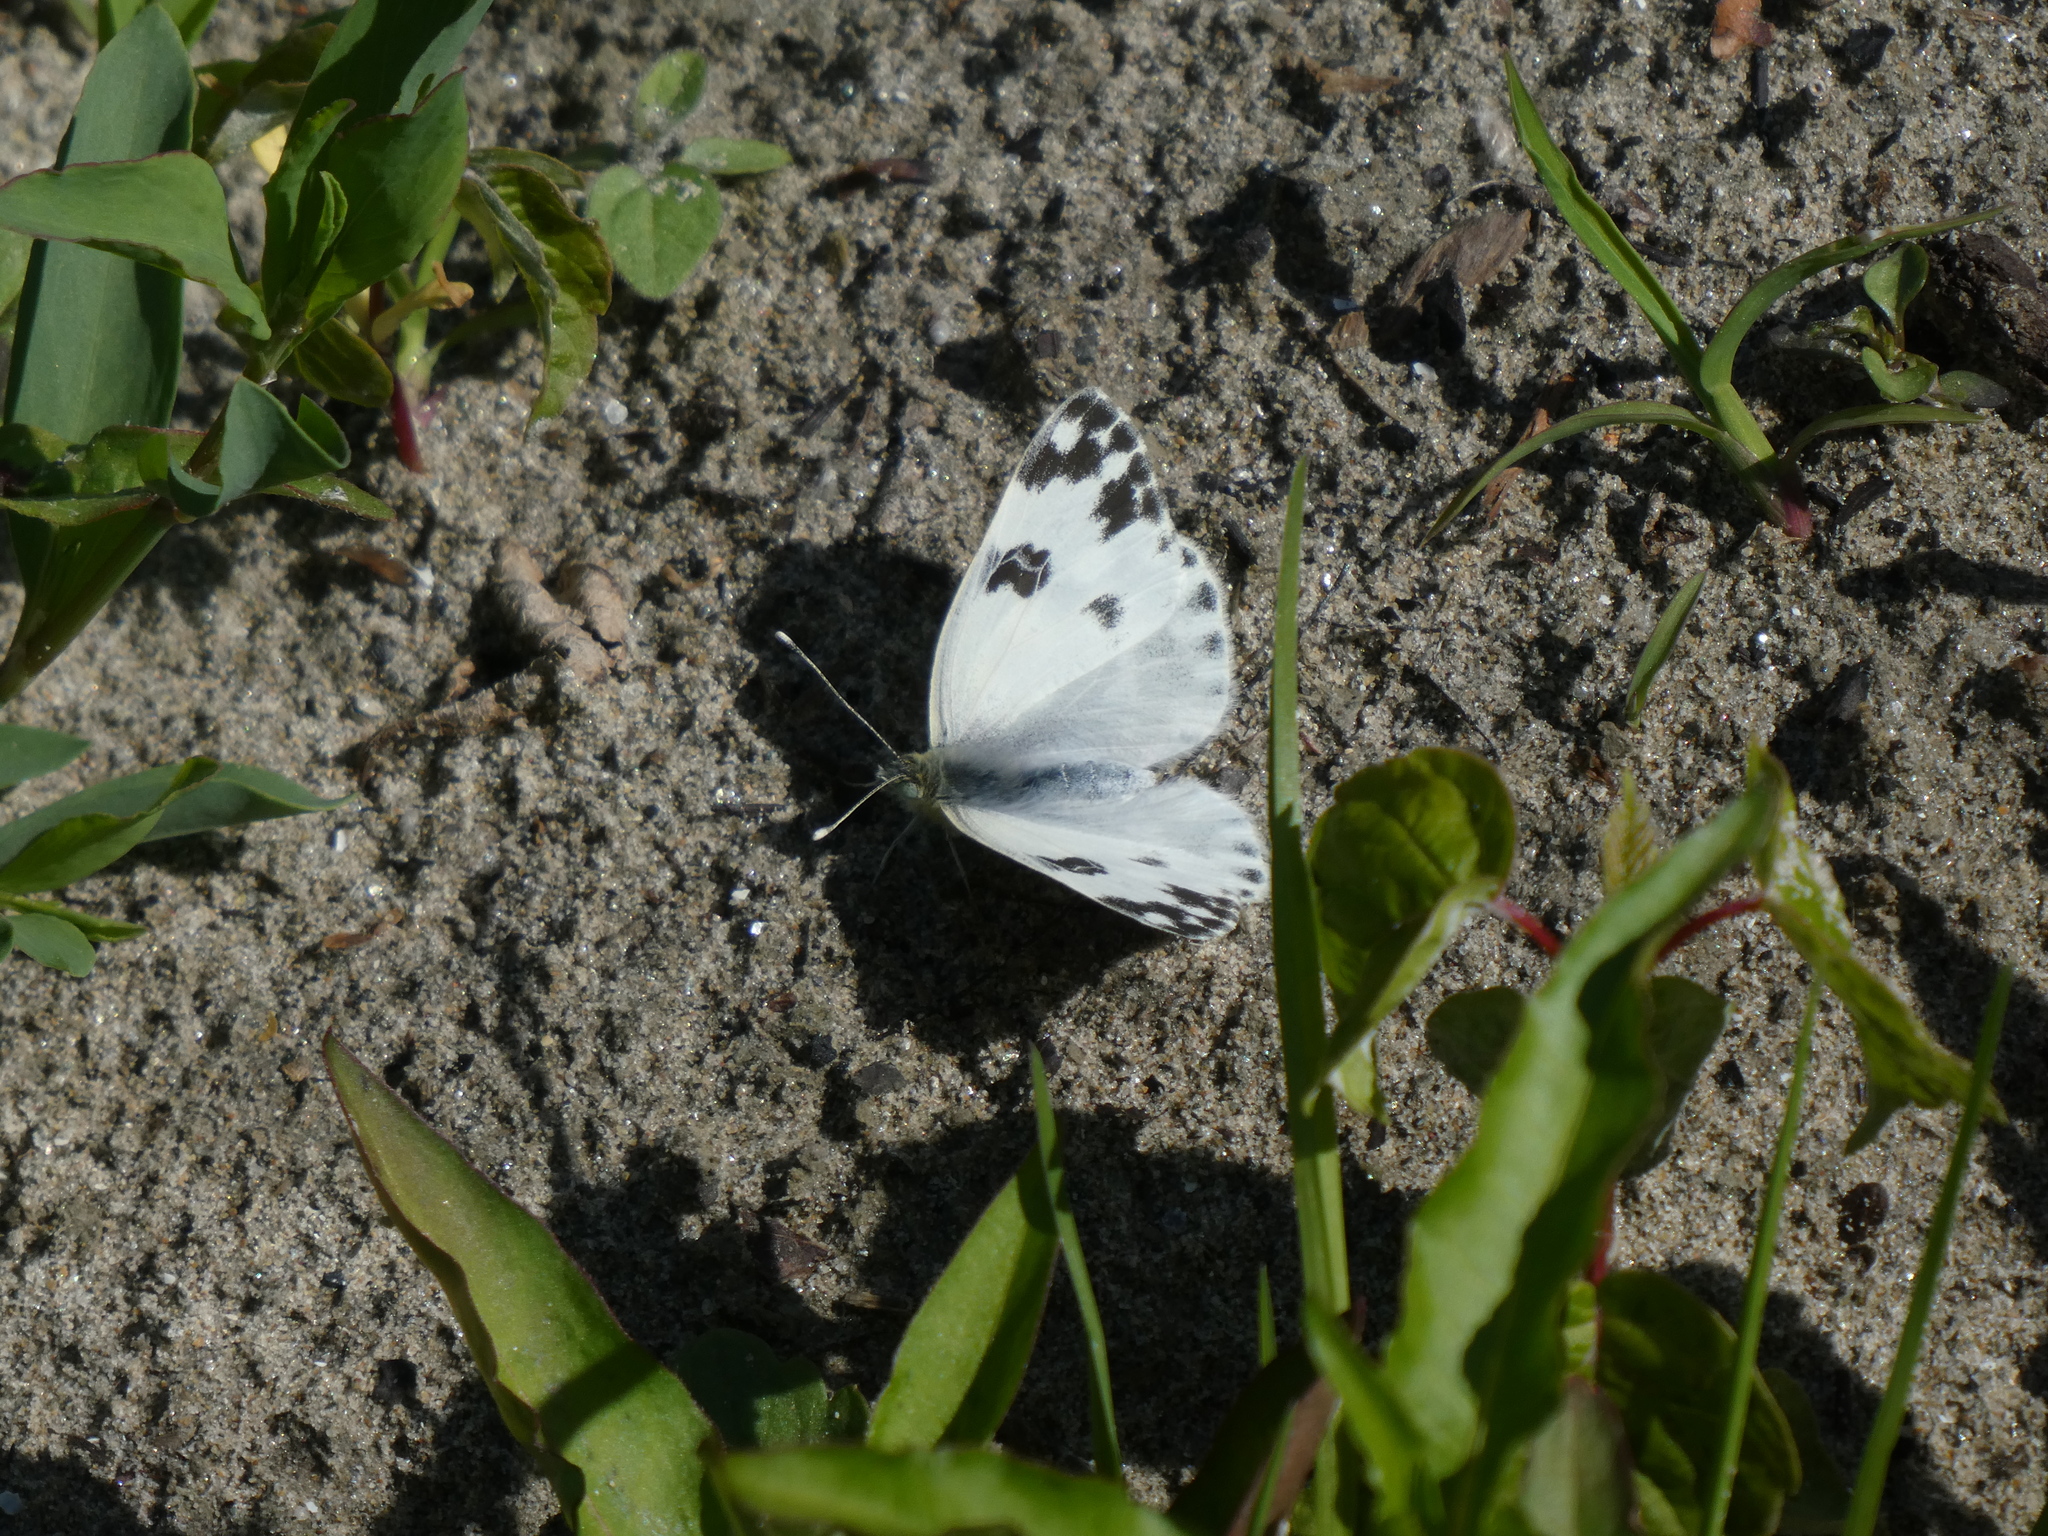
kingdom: Animalia
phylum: Arthropoda
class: Insecta
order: Lepidoptera
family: Pieridae
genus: Pontia
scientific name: Pontia edusa
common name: Eastern bath white
